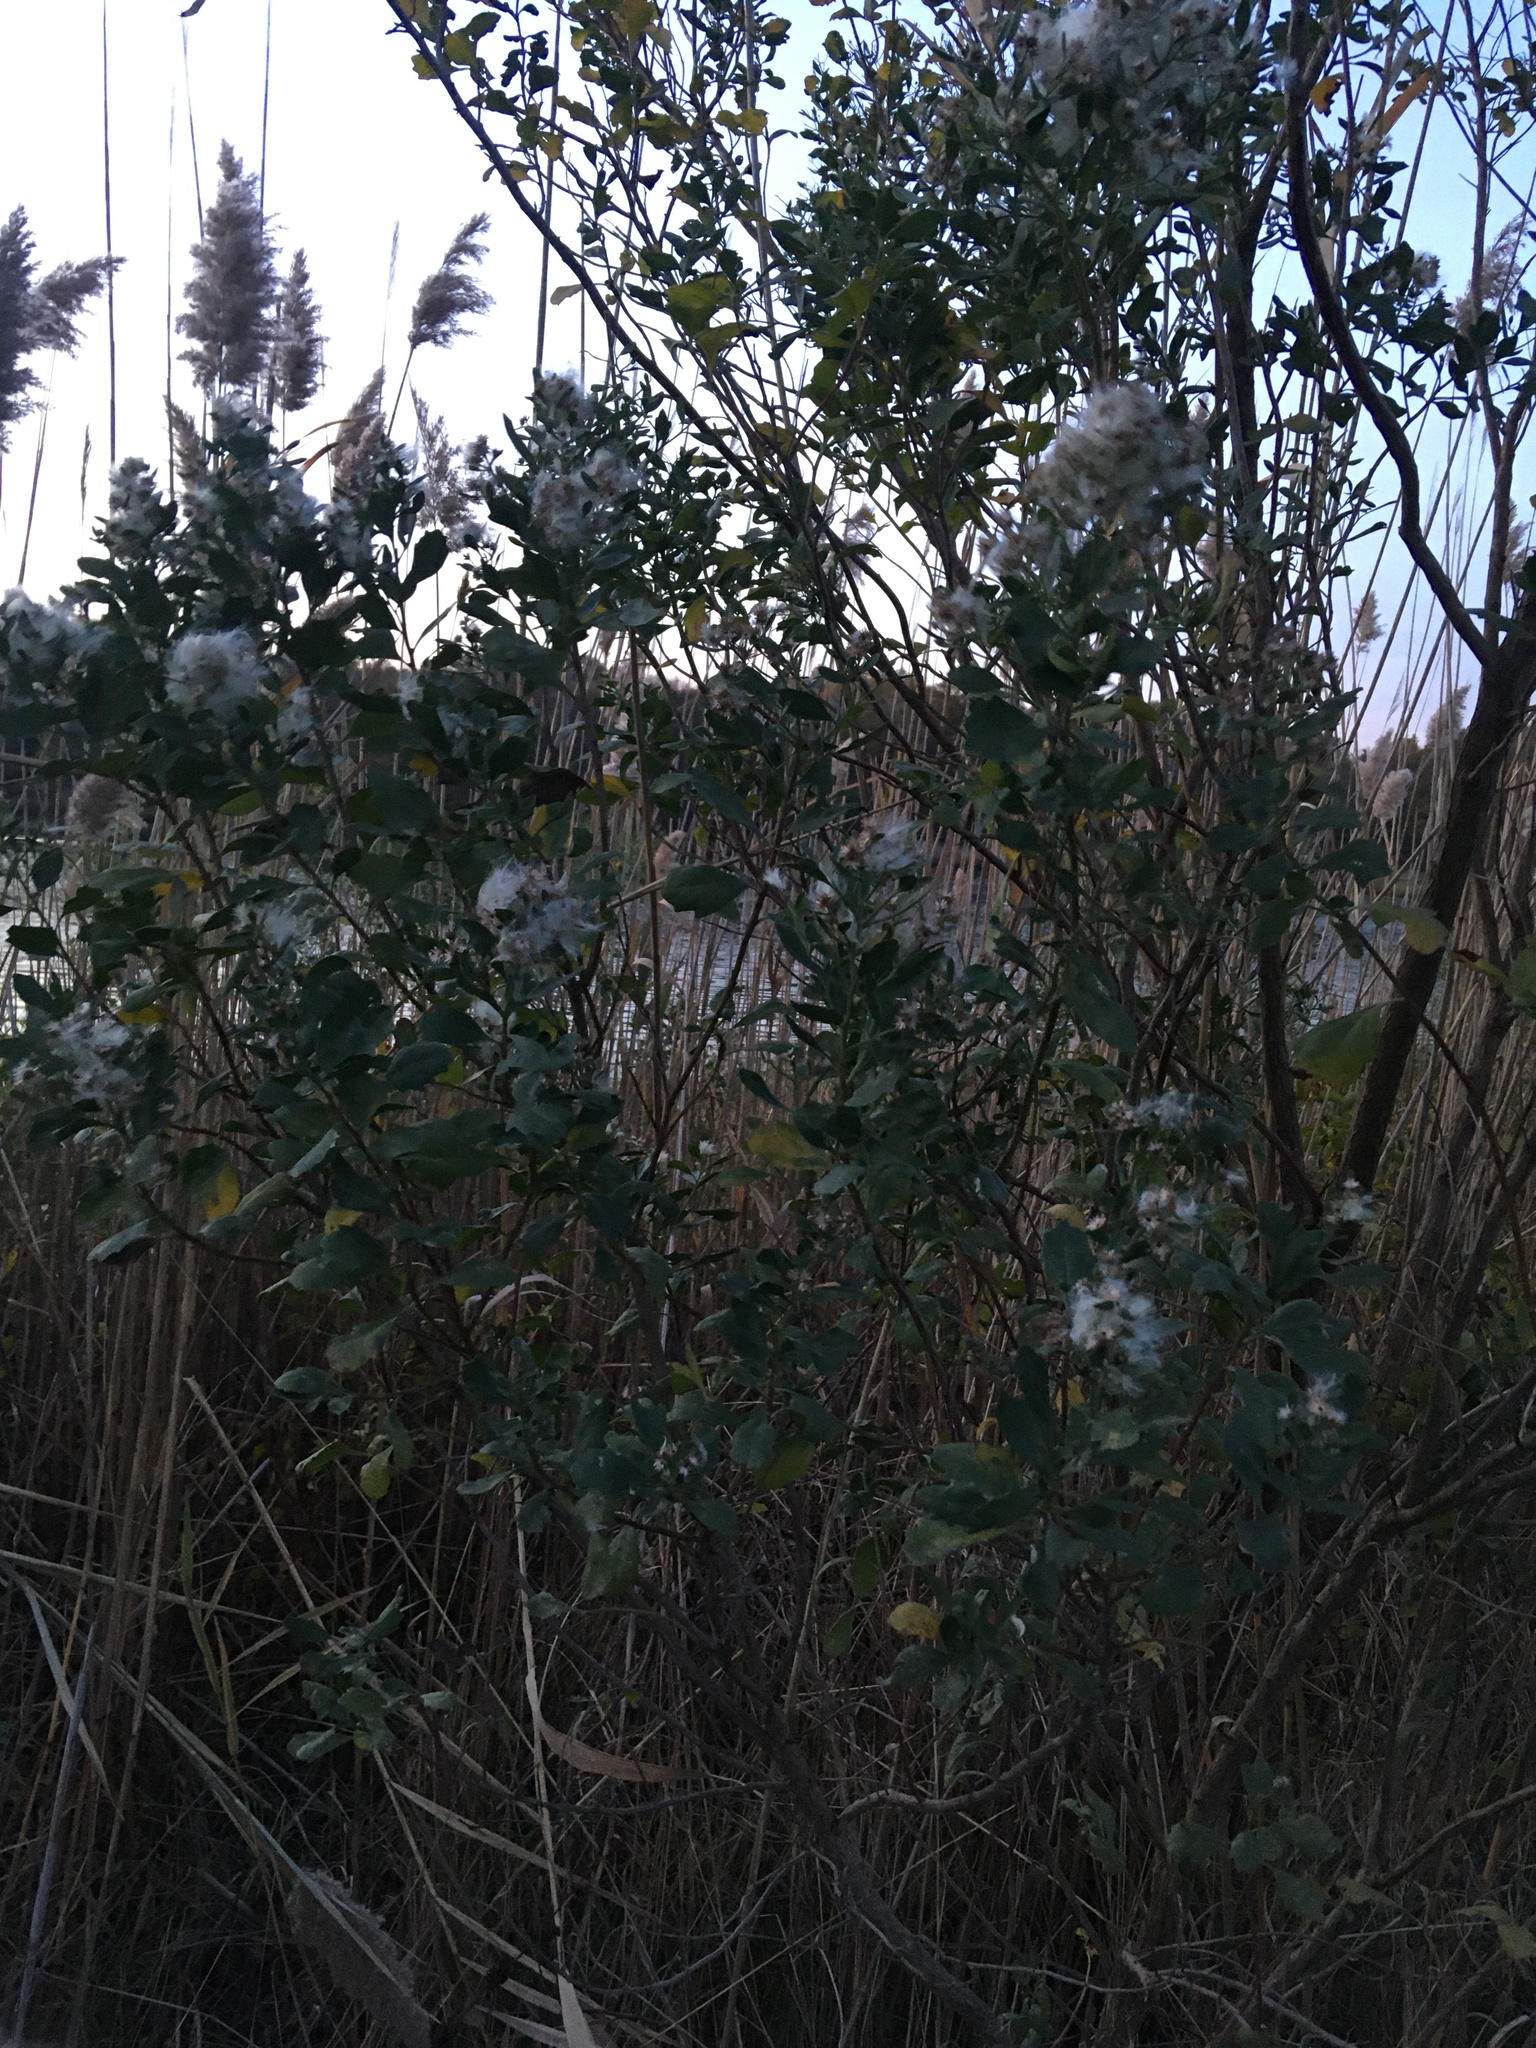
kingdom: Plantae
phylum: Tracheophyta
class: Magnoliopsida
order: Asterales
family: Asteraceae
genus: Baccharis
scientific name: Baccharis halimifolia
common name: Eastern baccharis
